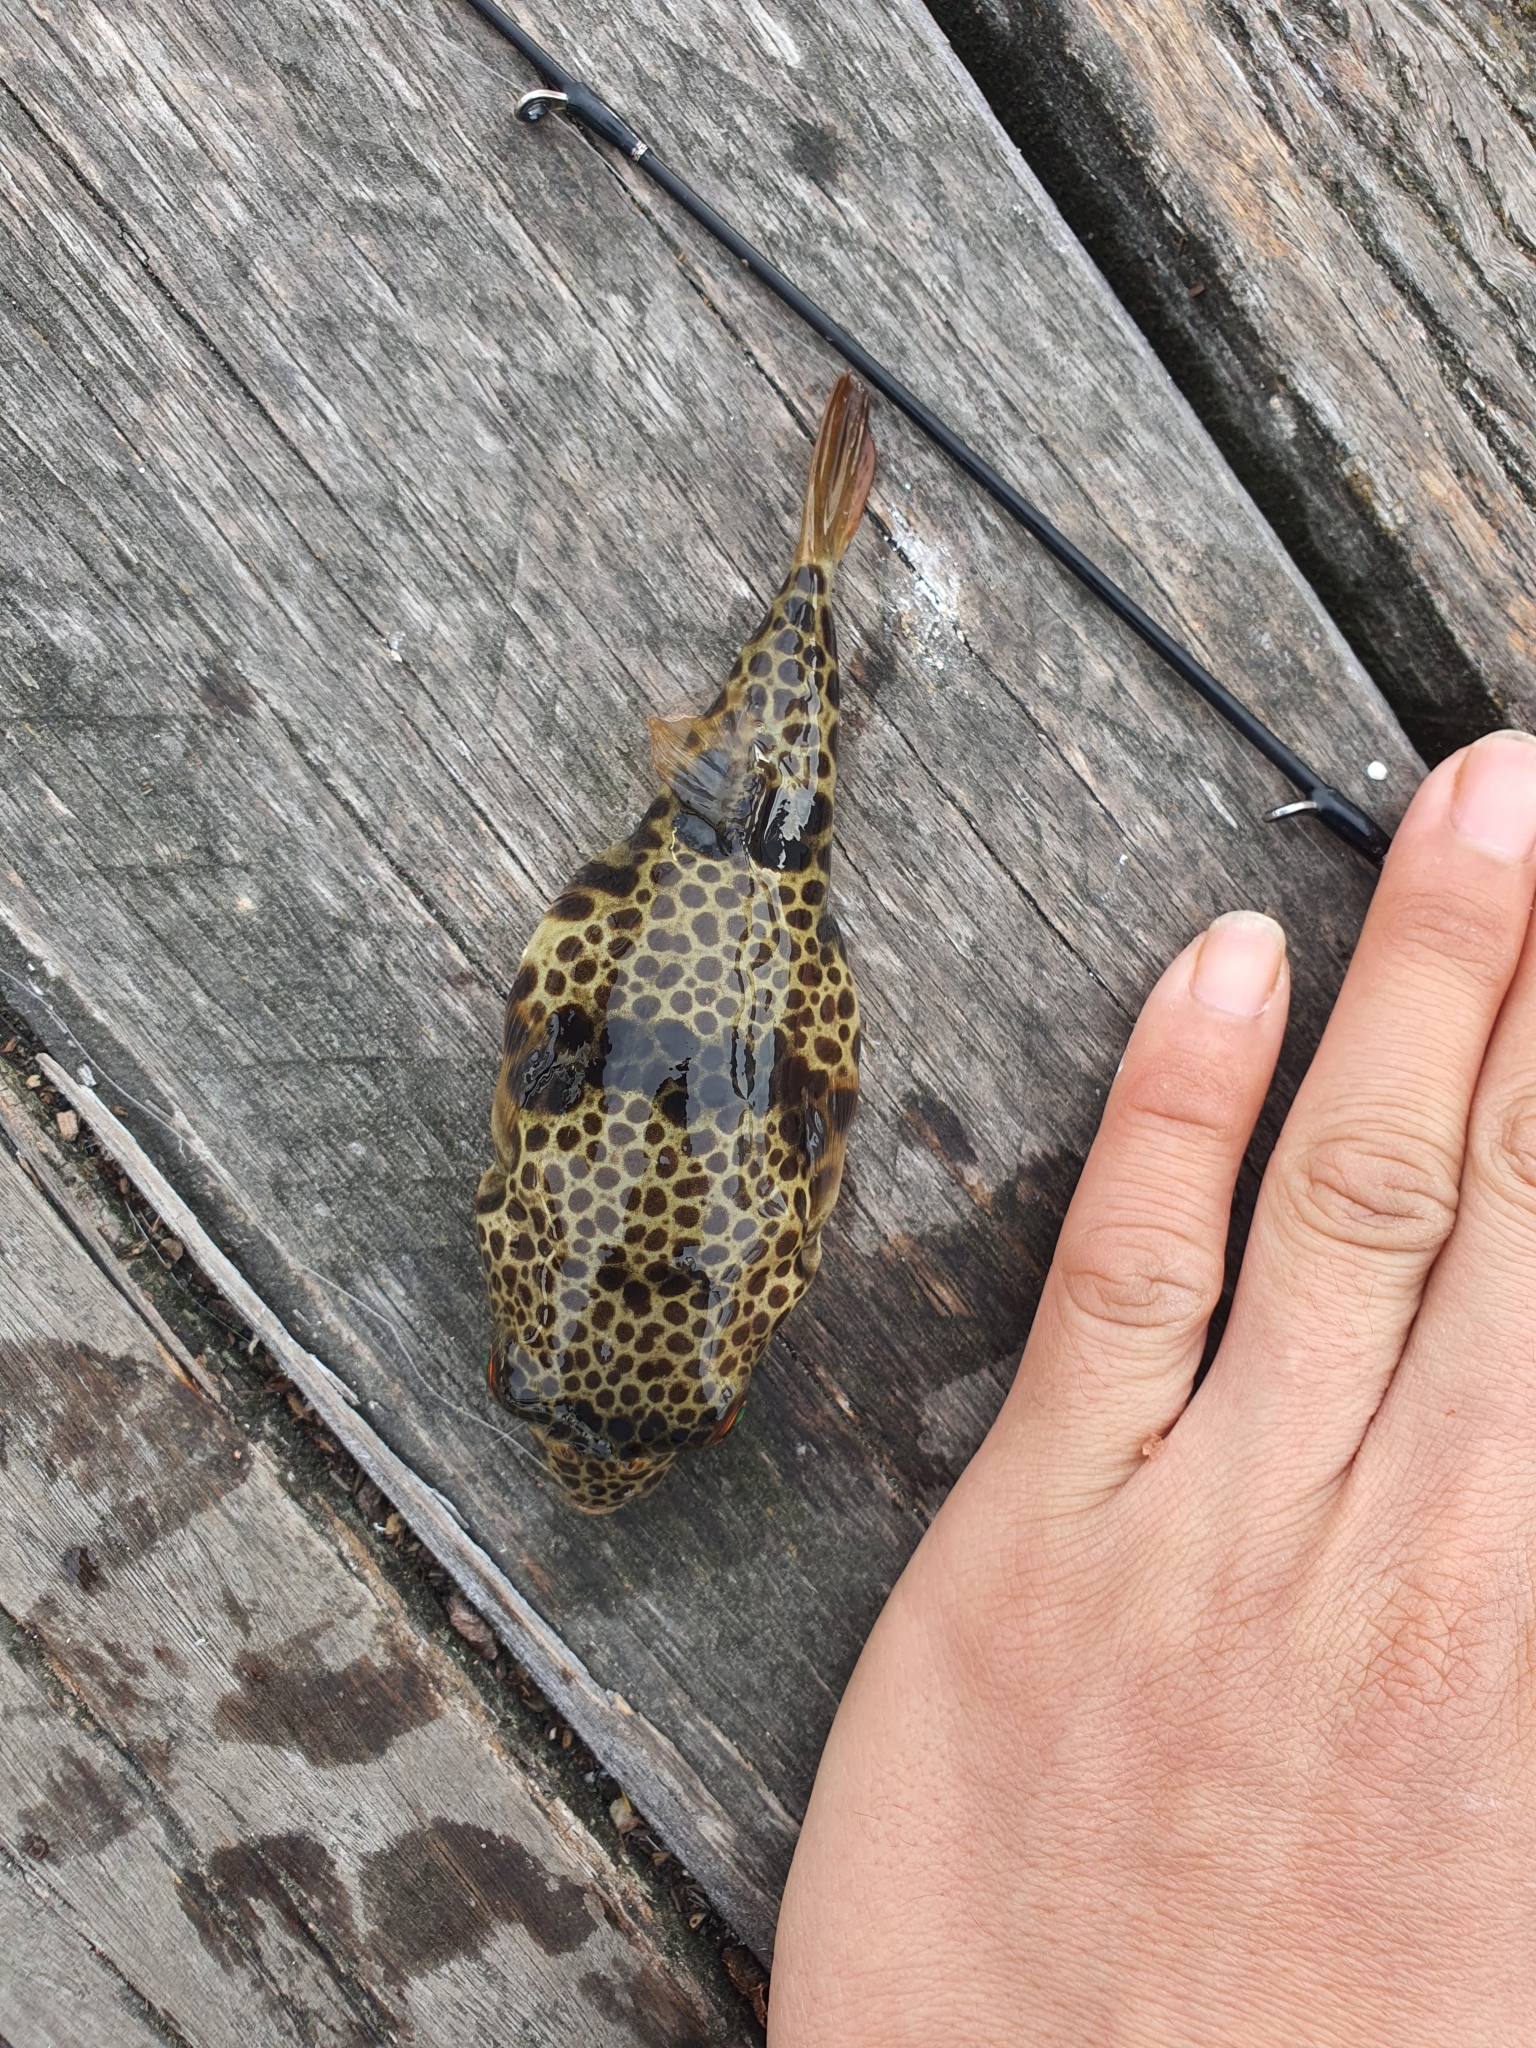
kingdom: Animalia
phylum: Chordata
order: Tetraodontiformes
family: Tetraodontidae
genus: Tetractenos
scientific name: Tetractenos glaber
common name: Smooth toadfish
